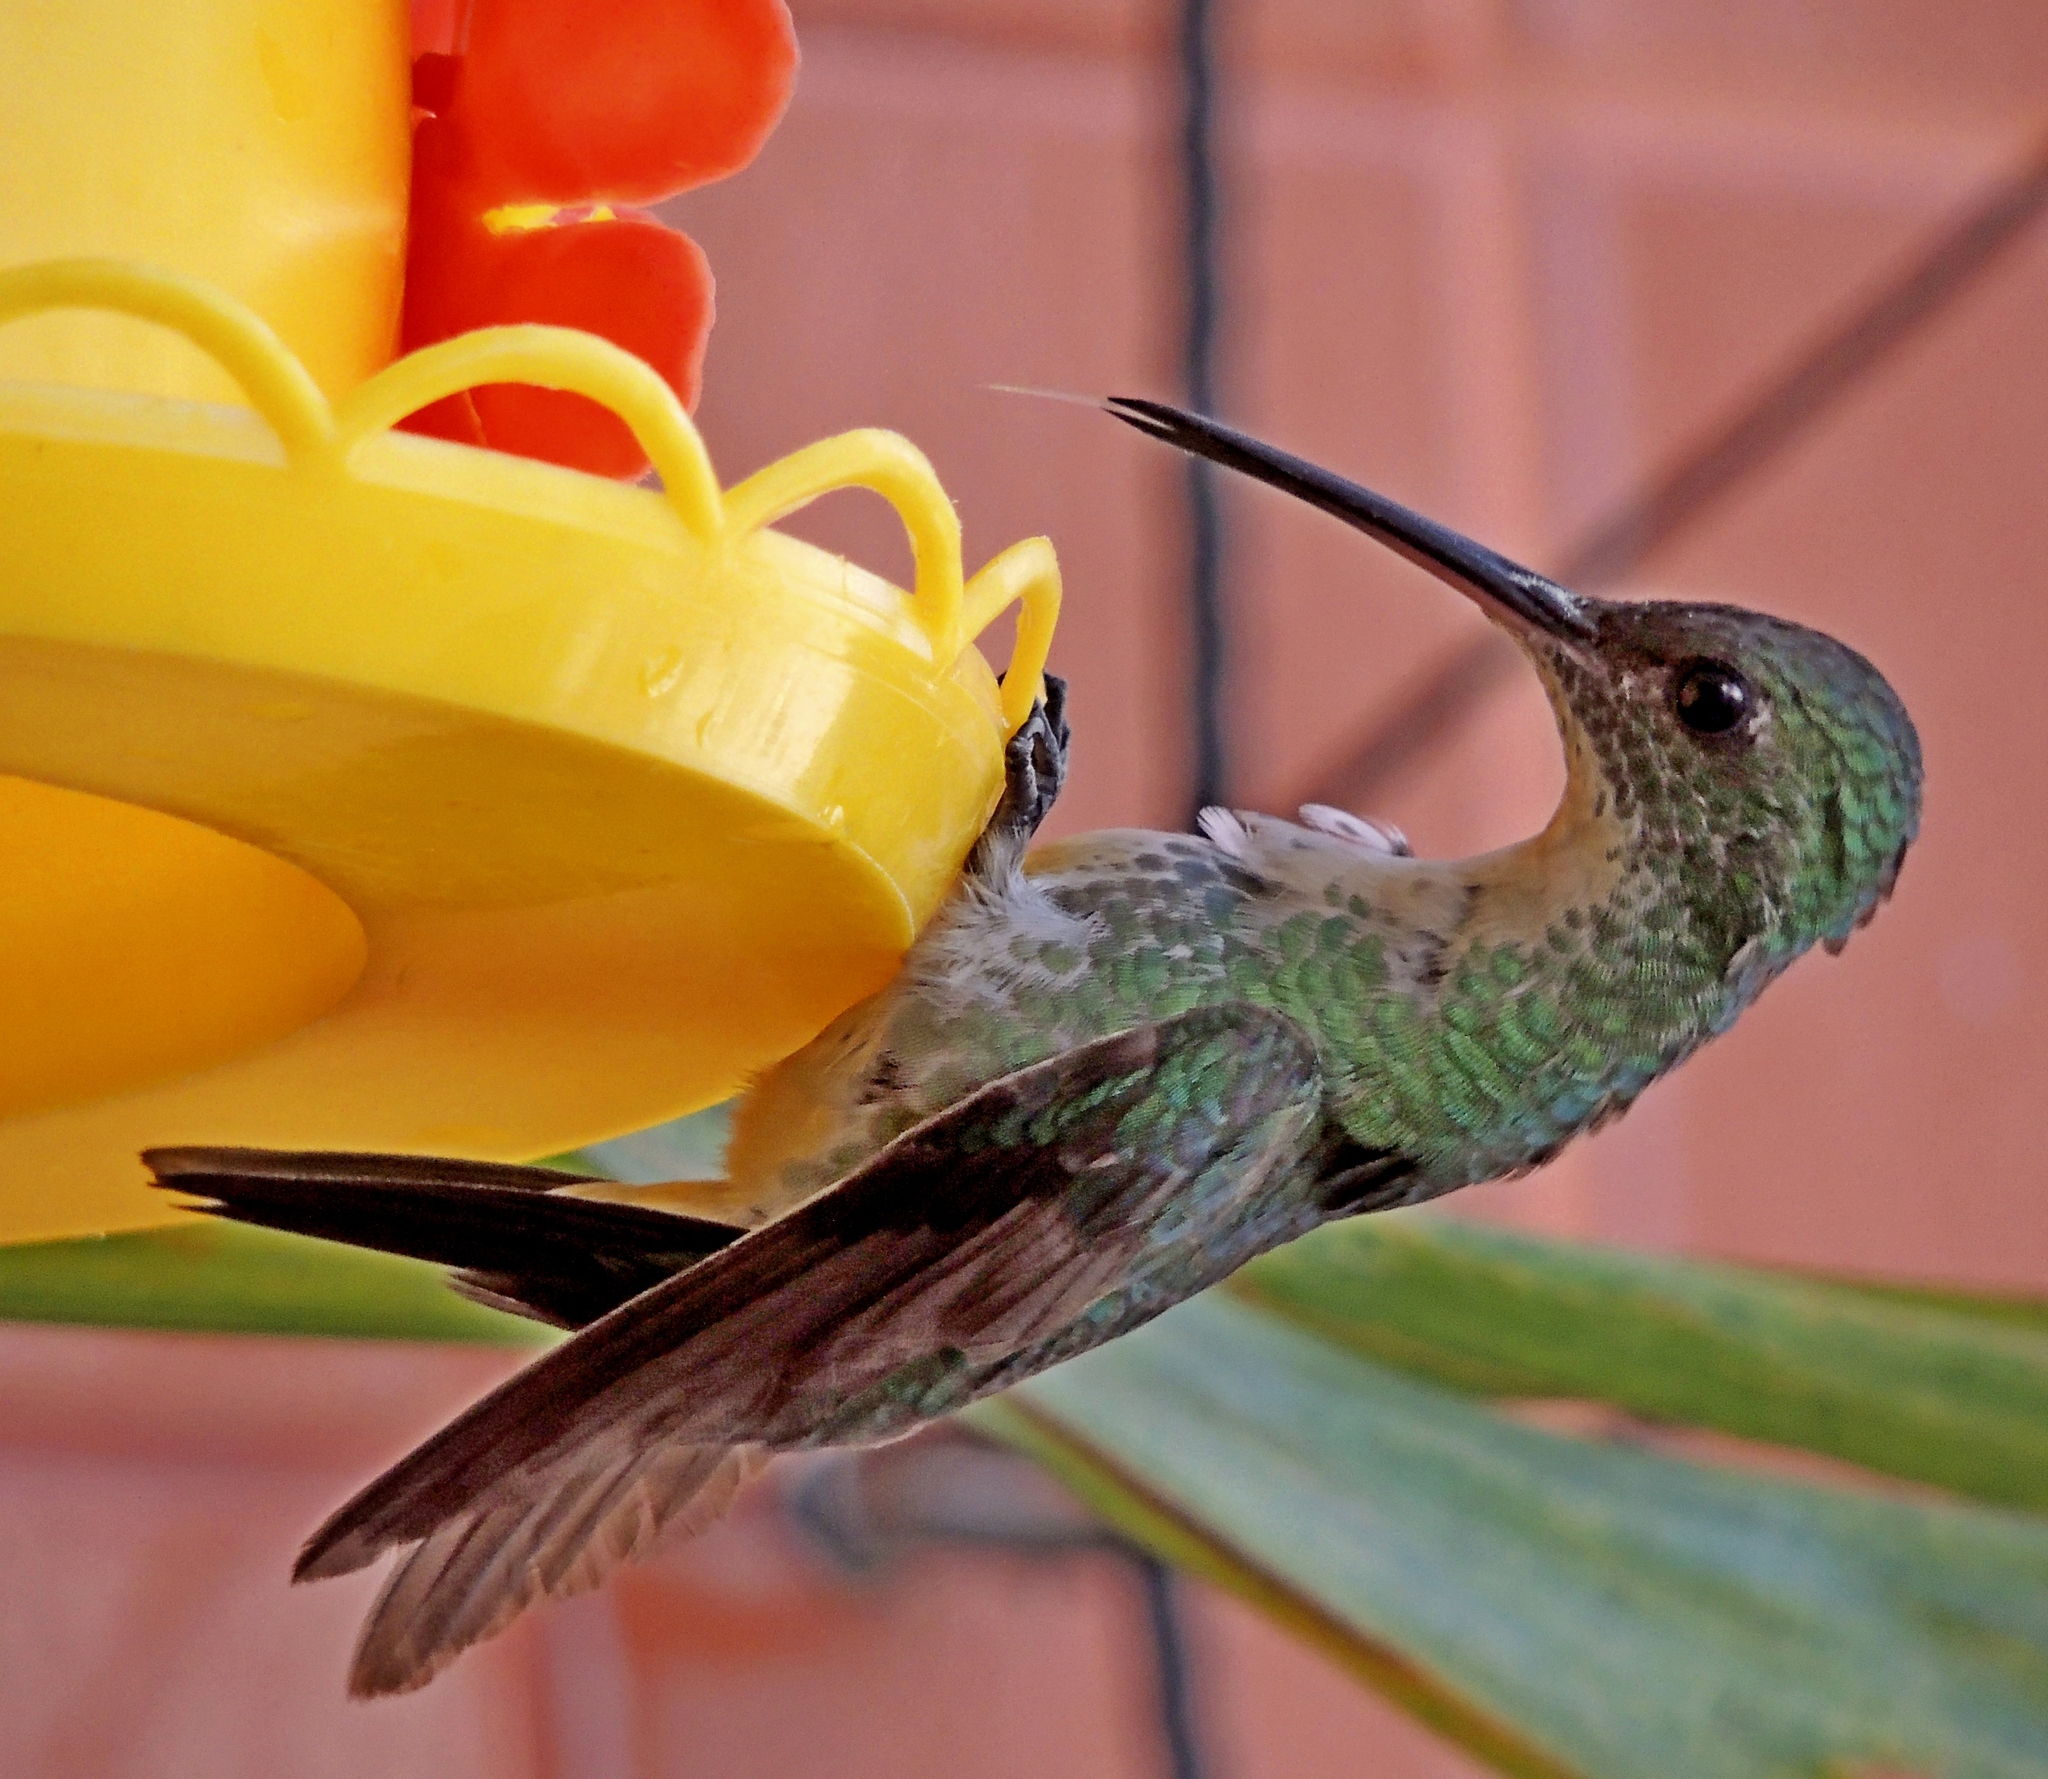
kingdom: Animalia
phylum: Chordata
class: Aves
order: Apodiformes
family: Trochilidae
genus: Chrysuronia
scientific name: Chrysuronia leucogaster
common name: Plain-bellied emerald
